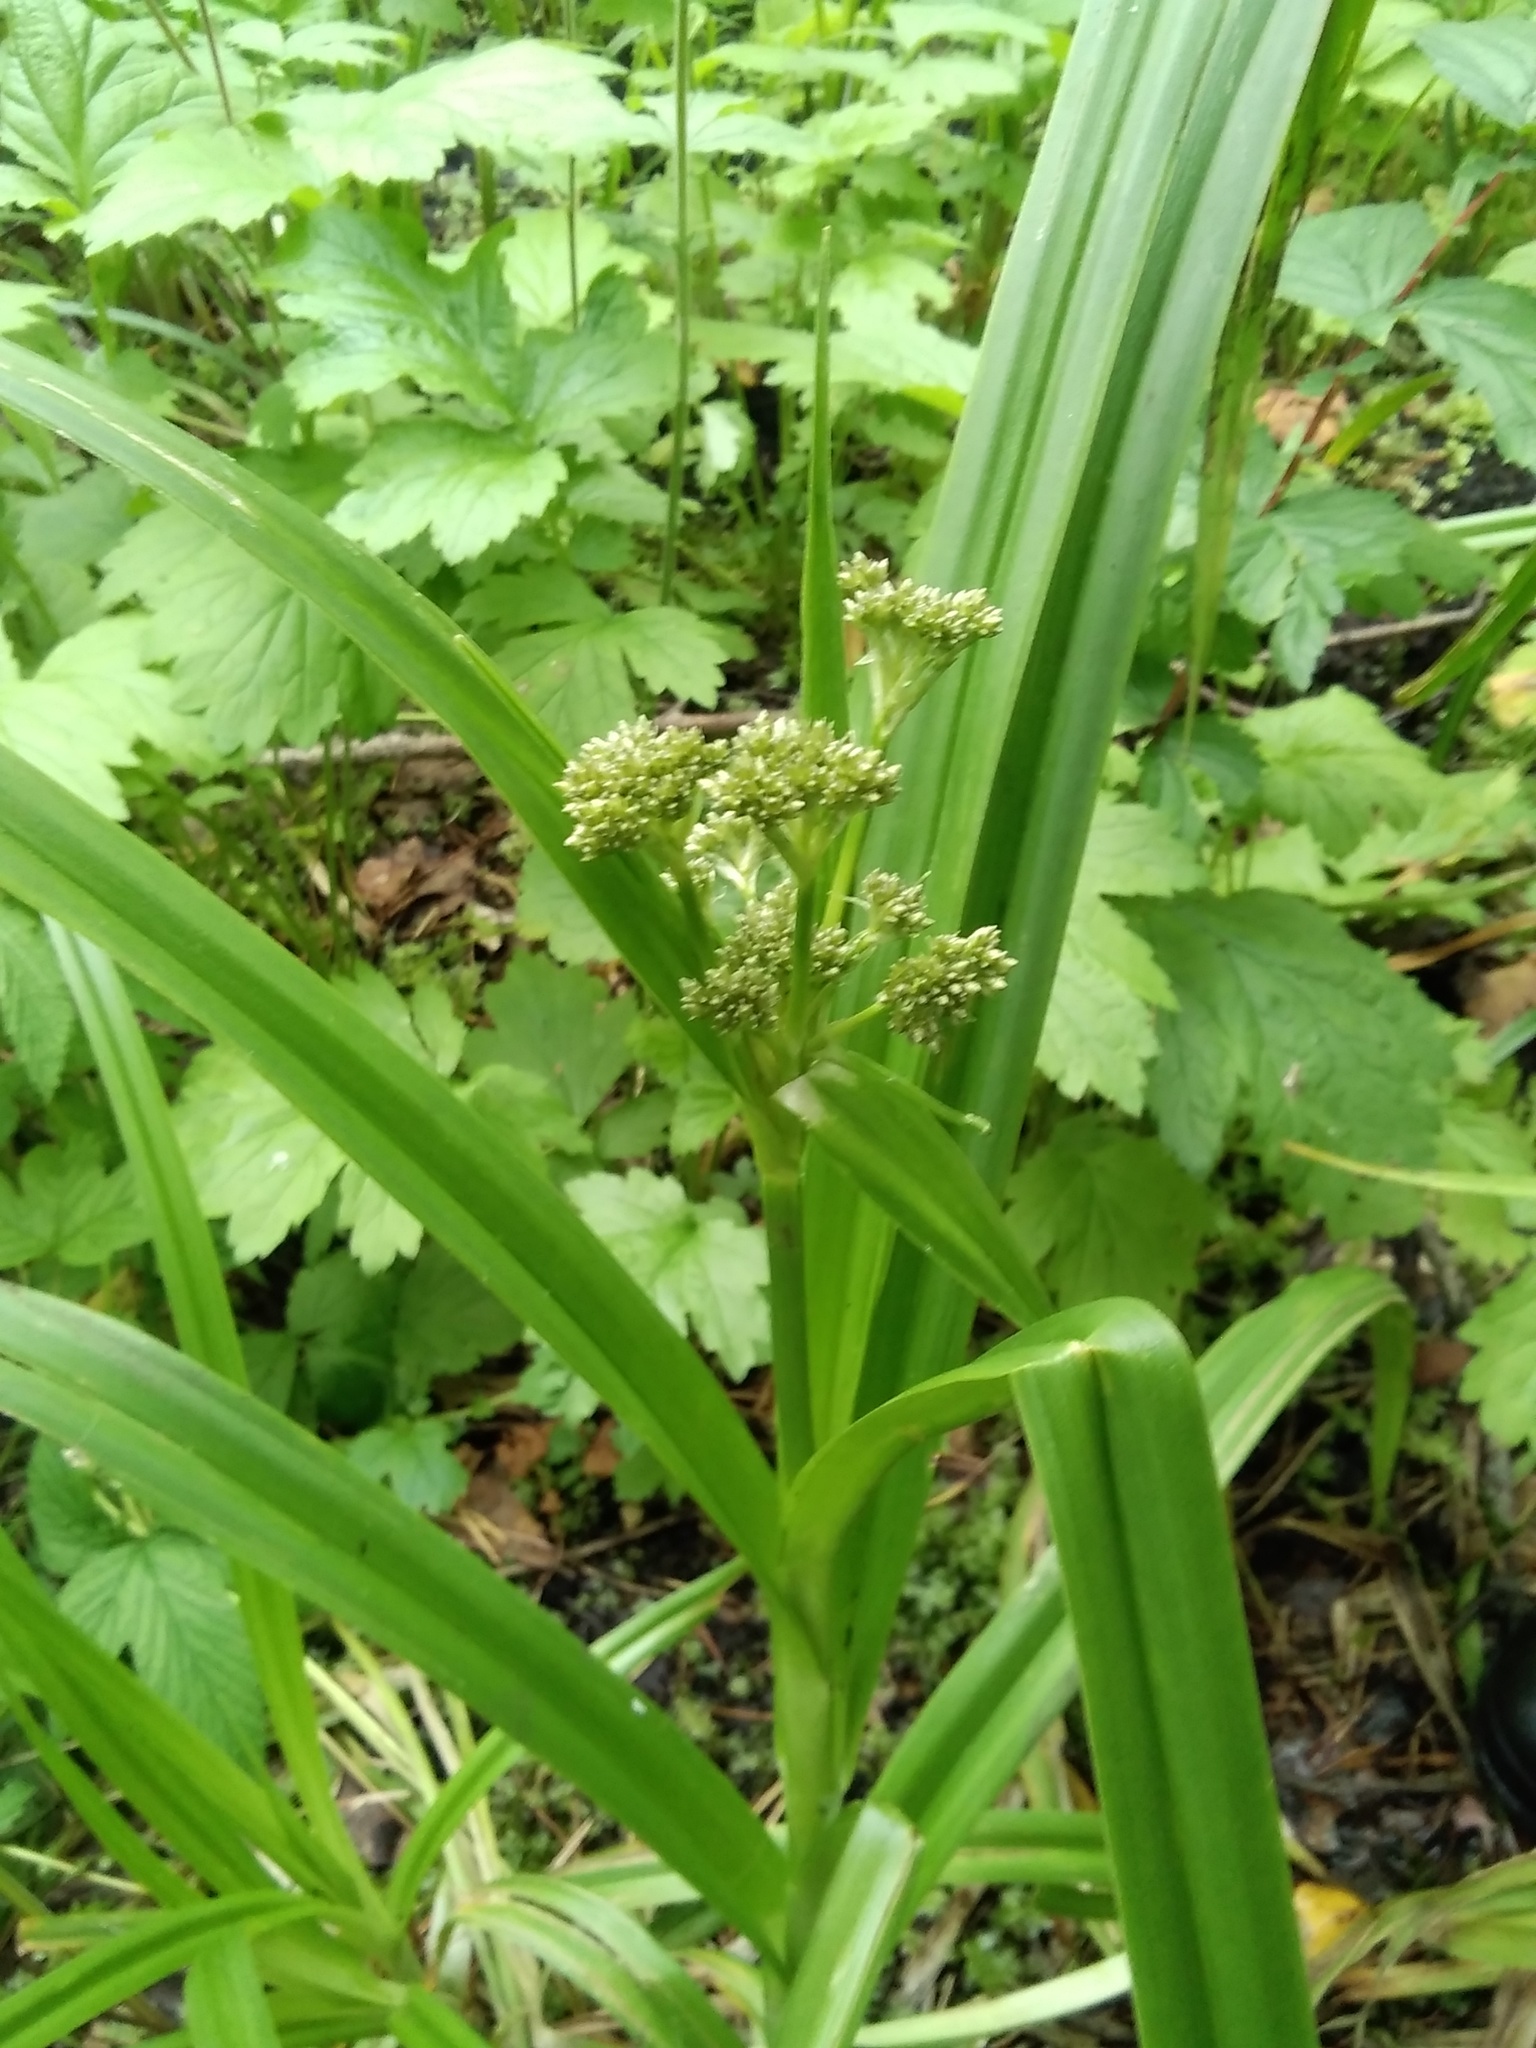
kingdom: Plantae
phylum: Tracheophyta
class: Liliopsida
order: Poales
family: Cyperaceae
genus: Scirpus
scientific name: Scirpus sylvaticus
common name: Wood club-rush
